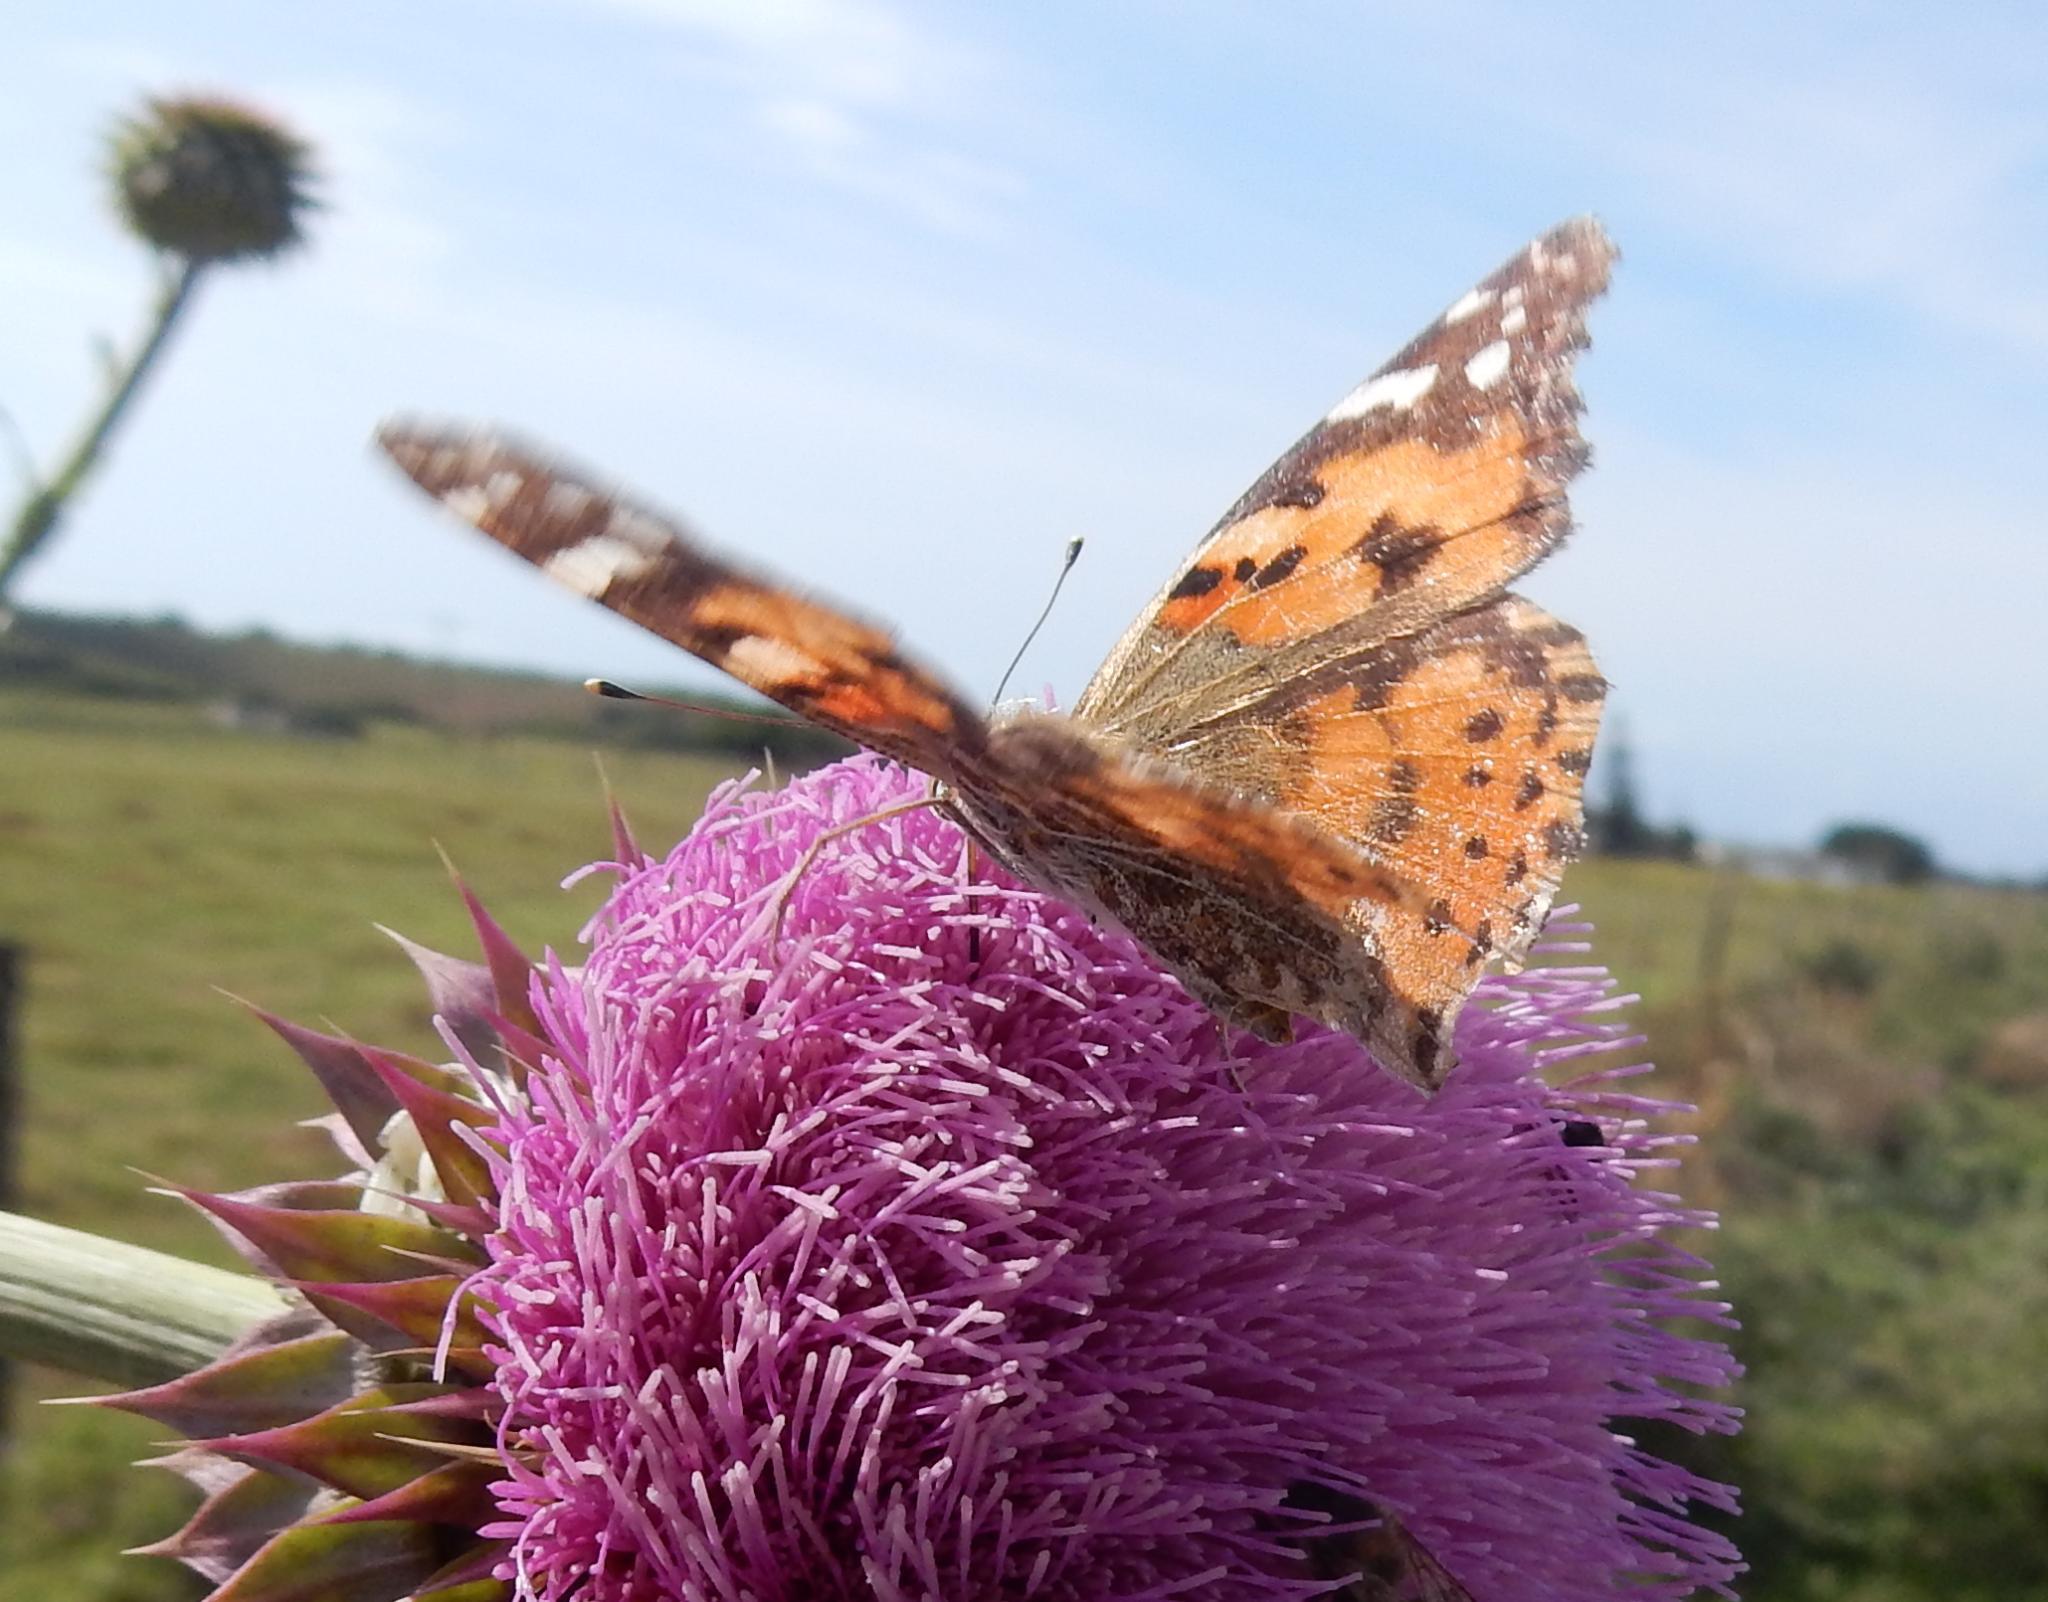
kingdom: Animalia
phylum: Arthropoda
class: Insecta
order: Lepidoptera
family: Nymphalidae
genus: Vanessa
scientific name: Vanessa cardui
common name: Painted lady
